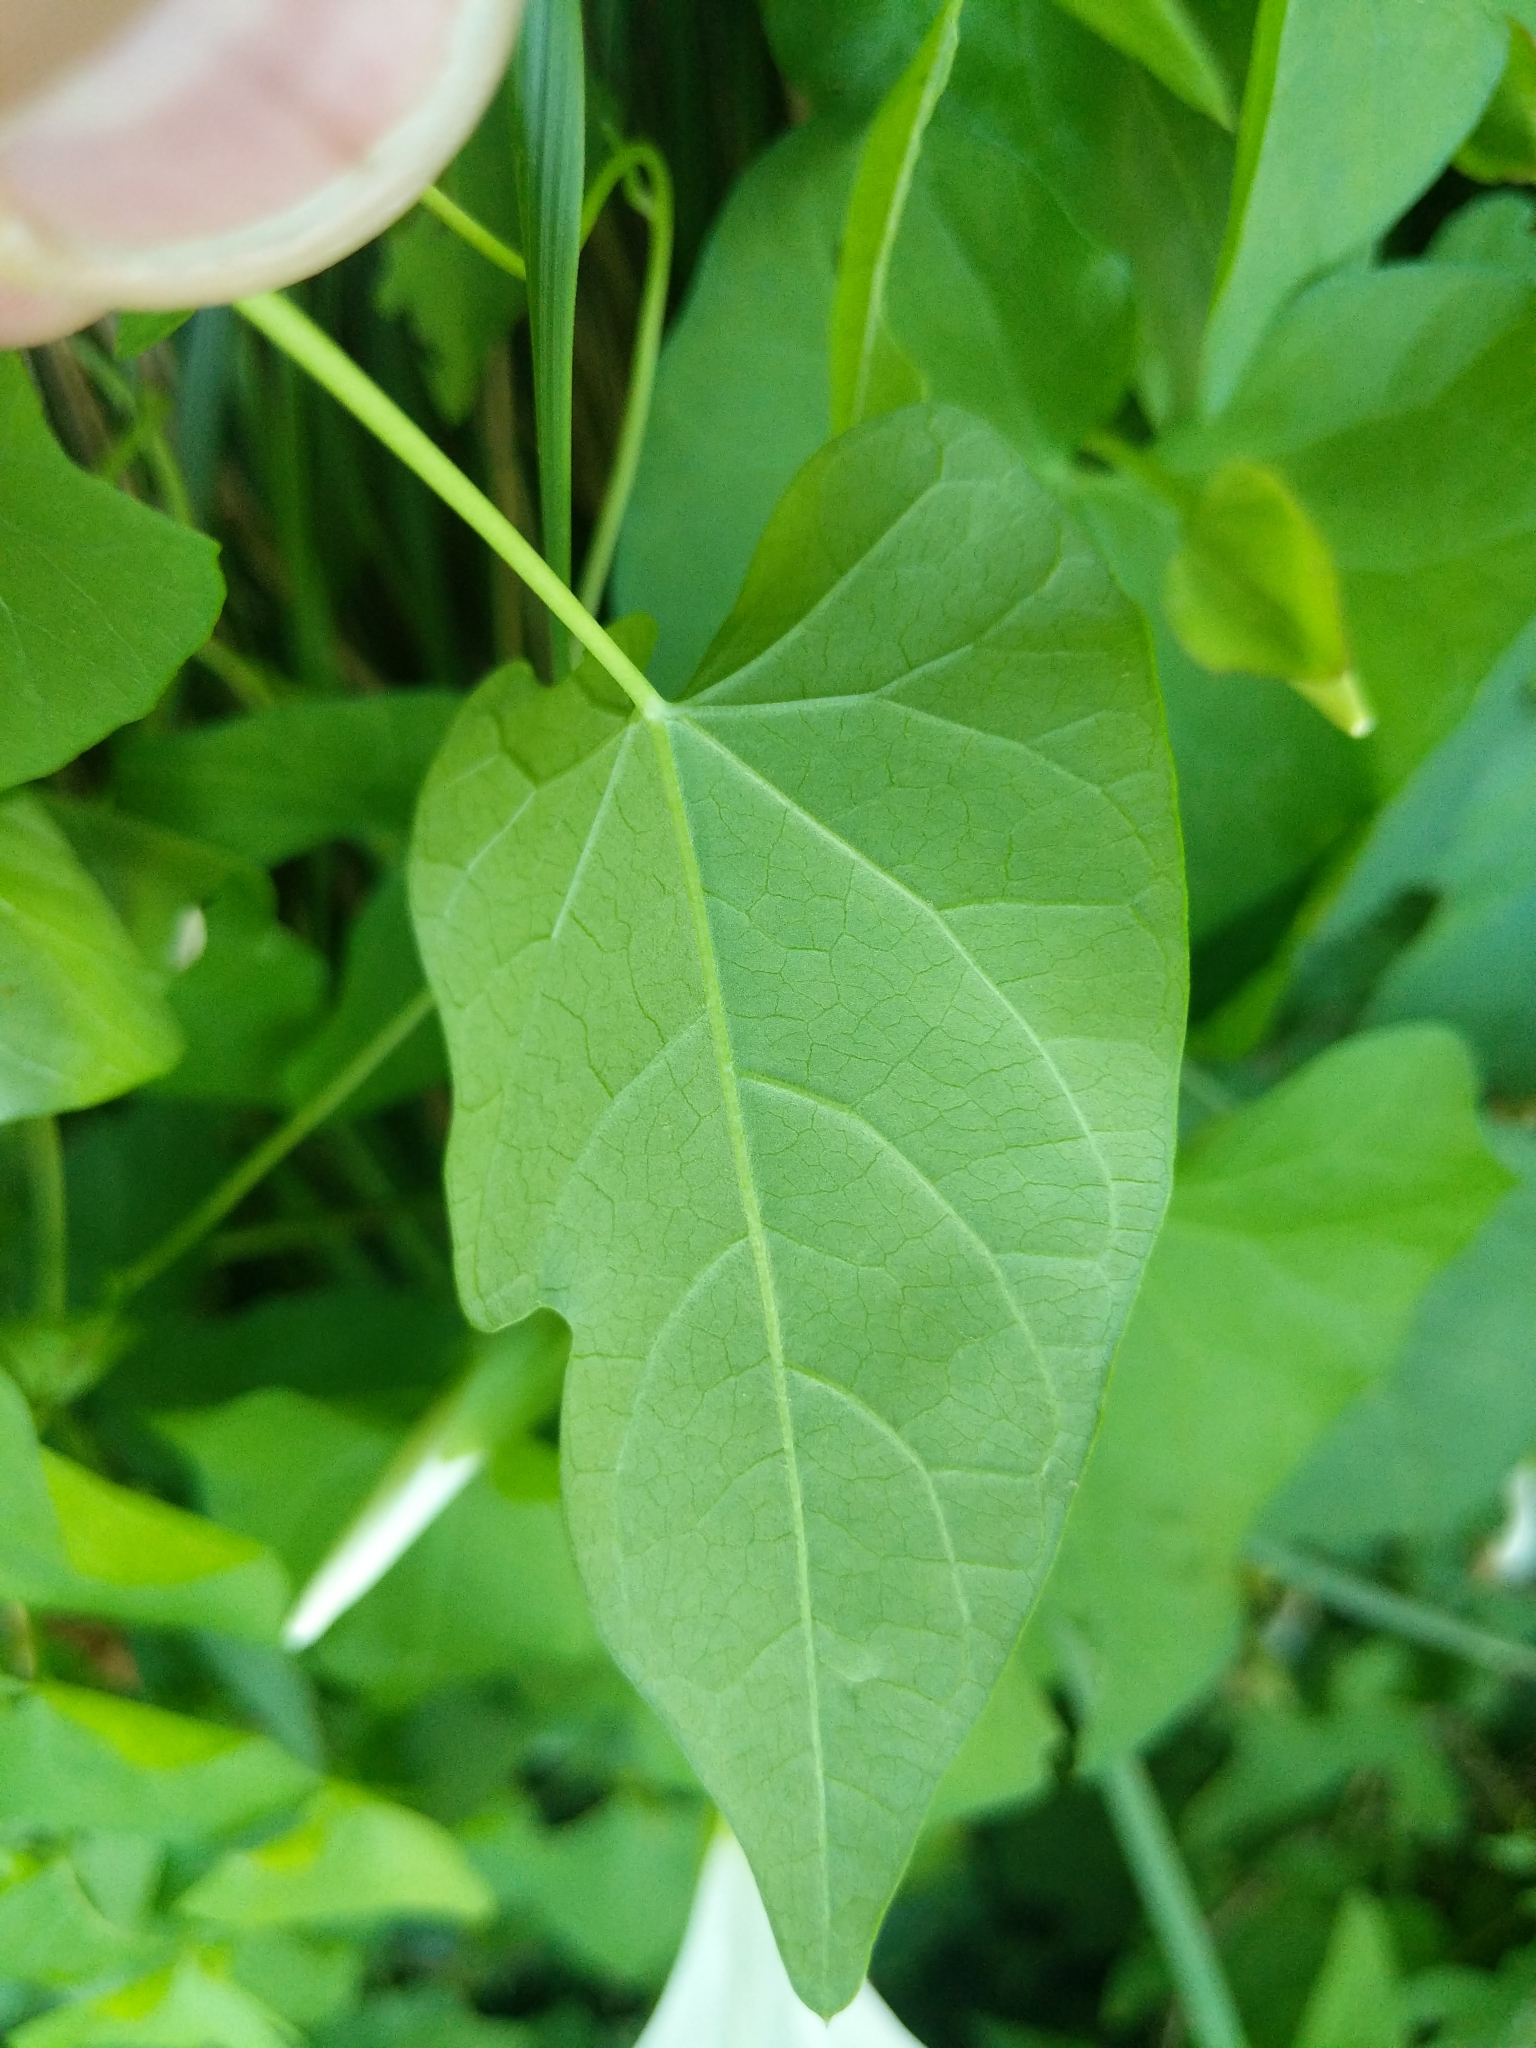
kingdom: Plantae
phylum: Tracheophyta
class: Magnoliopsida
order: Solanales
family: Convolvulaceae
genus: Calystegia
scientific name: Calystegia sepium
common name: Hedge bindweed
